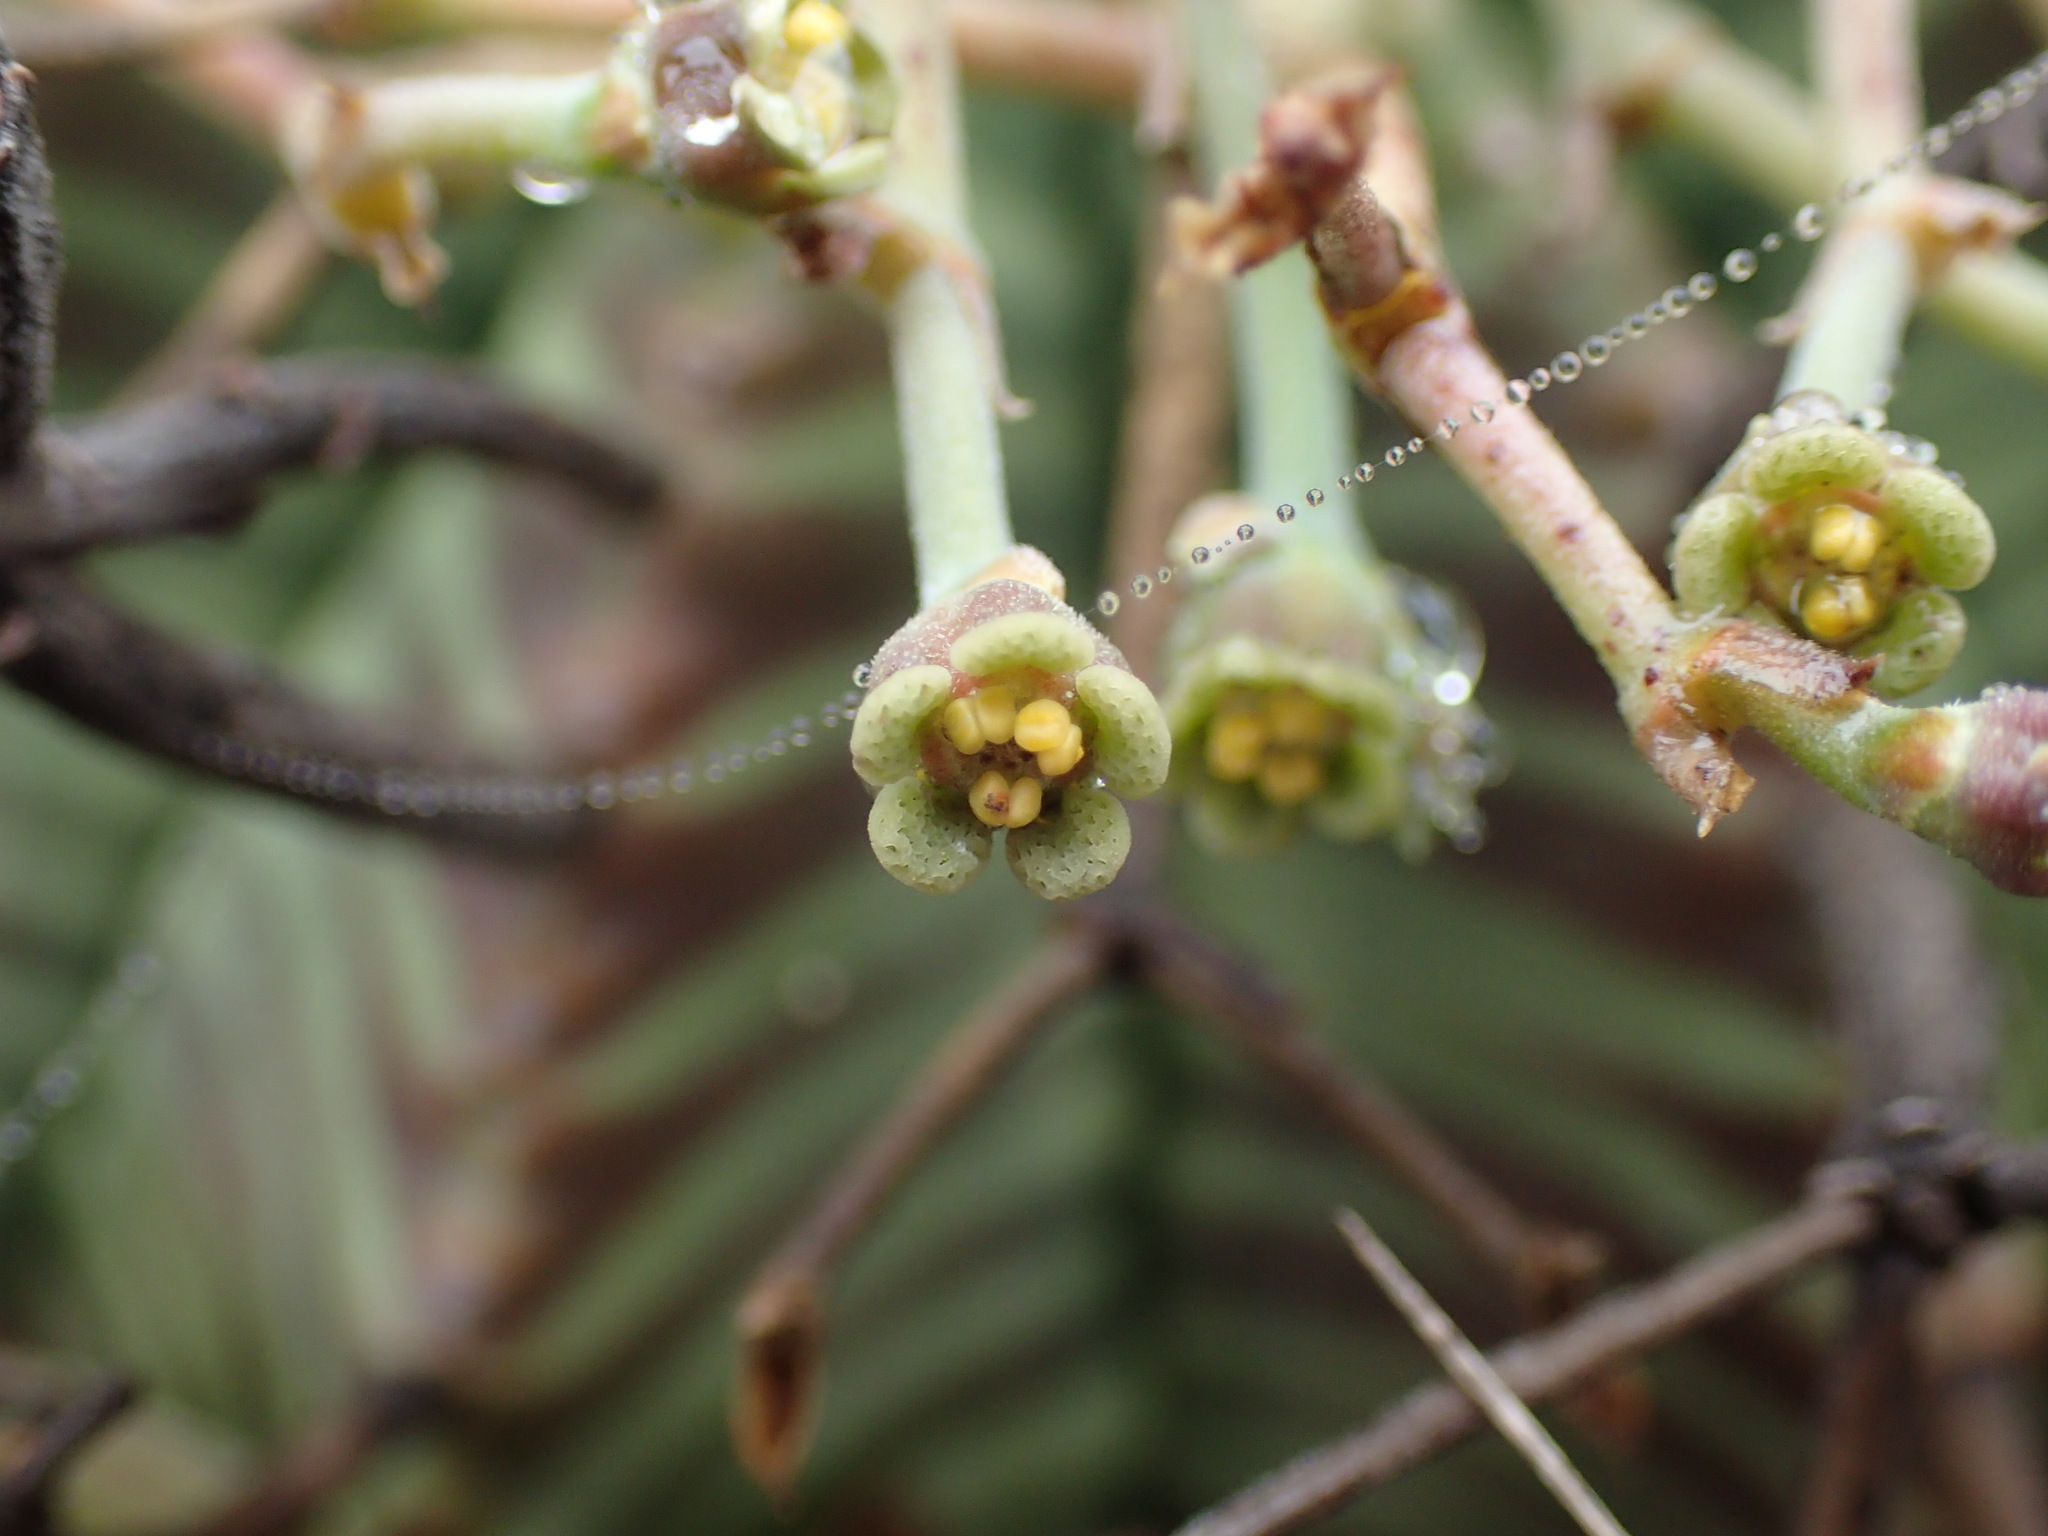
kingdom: Plantae
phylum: Tracheophyta
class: Magnoliopsida
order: Malpighiales
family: Euphorbiaceae
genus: Euphorbia
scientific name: Euphorbia meloformis
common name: Melon spurge
